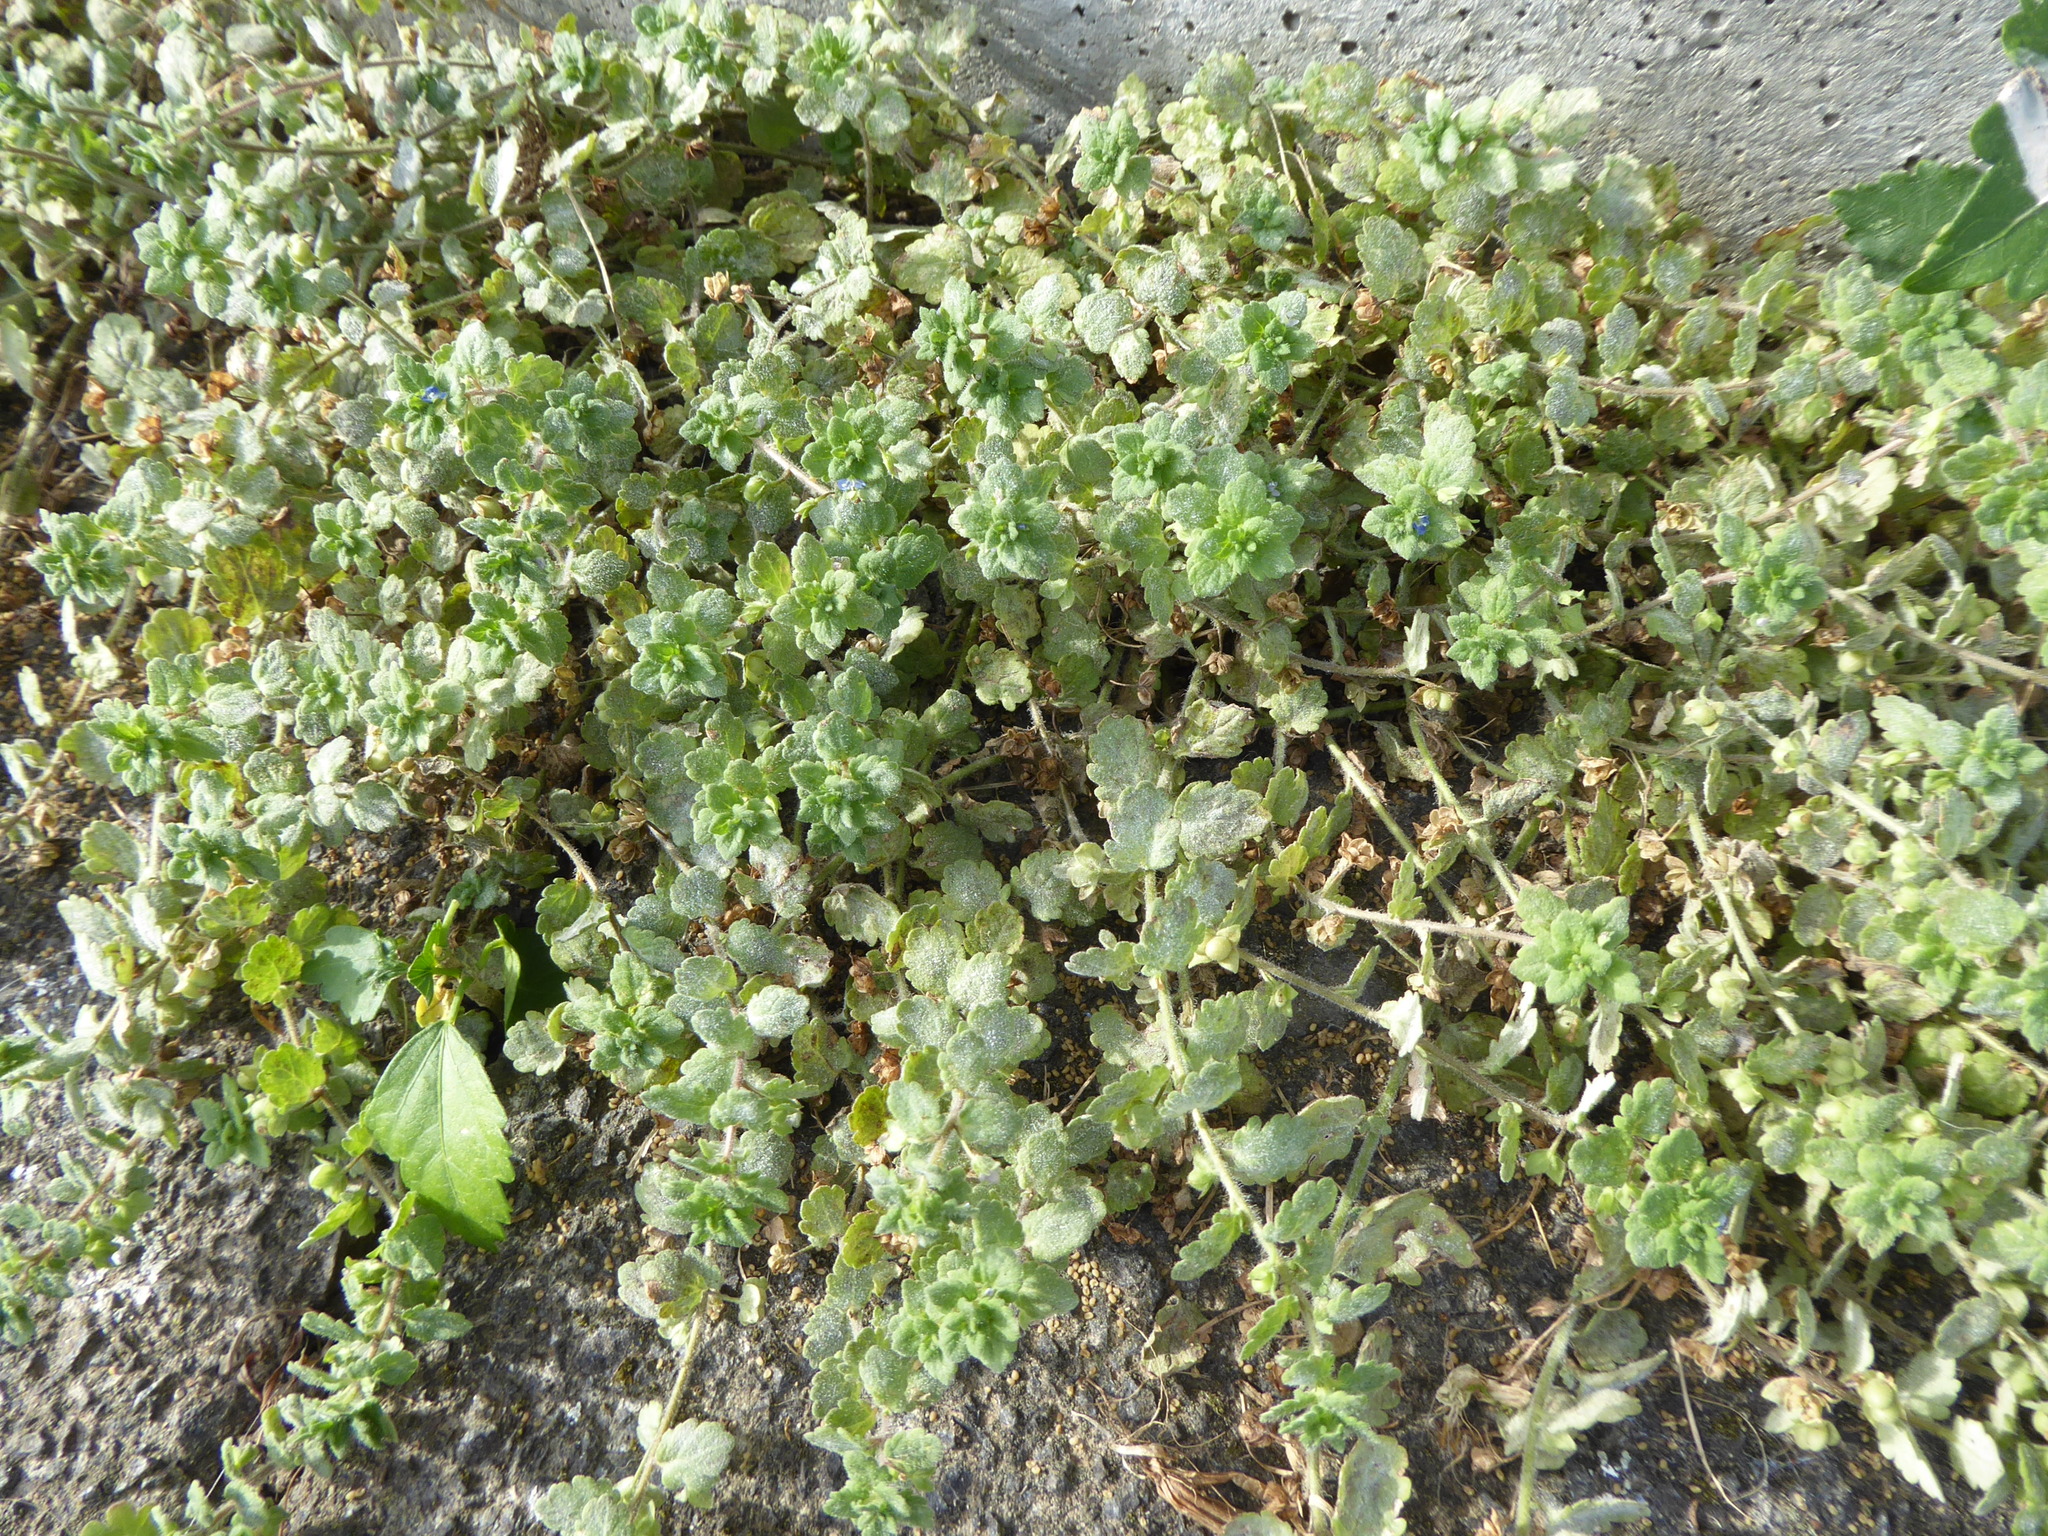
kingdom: Plantae
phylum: Tracheophyta
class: Magnoliopsida
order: Lamiales
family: Plantaginaceae
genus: Veronica
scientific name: Veronica polita
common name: Grey field-speedwell
